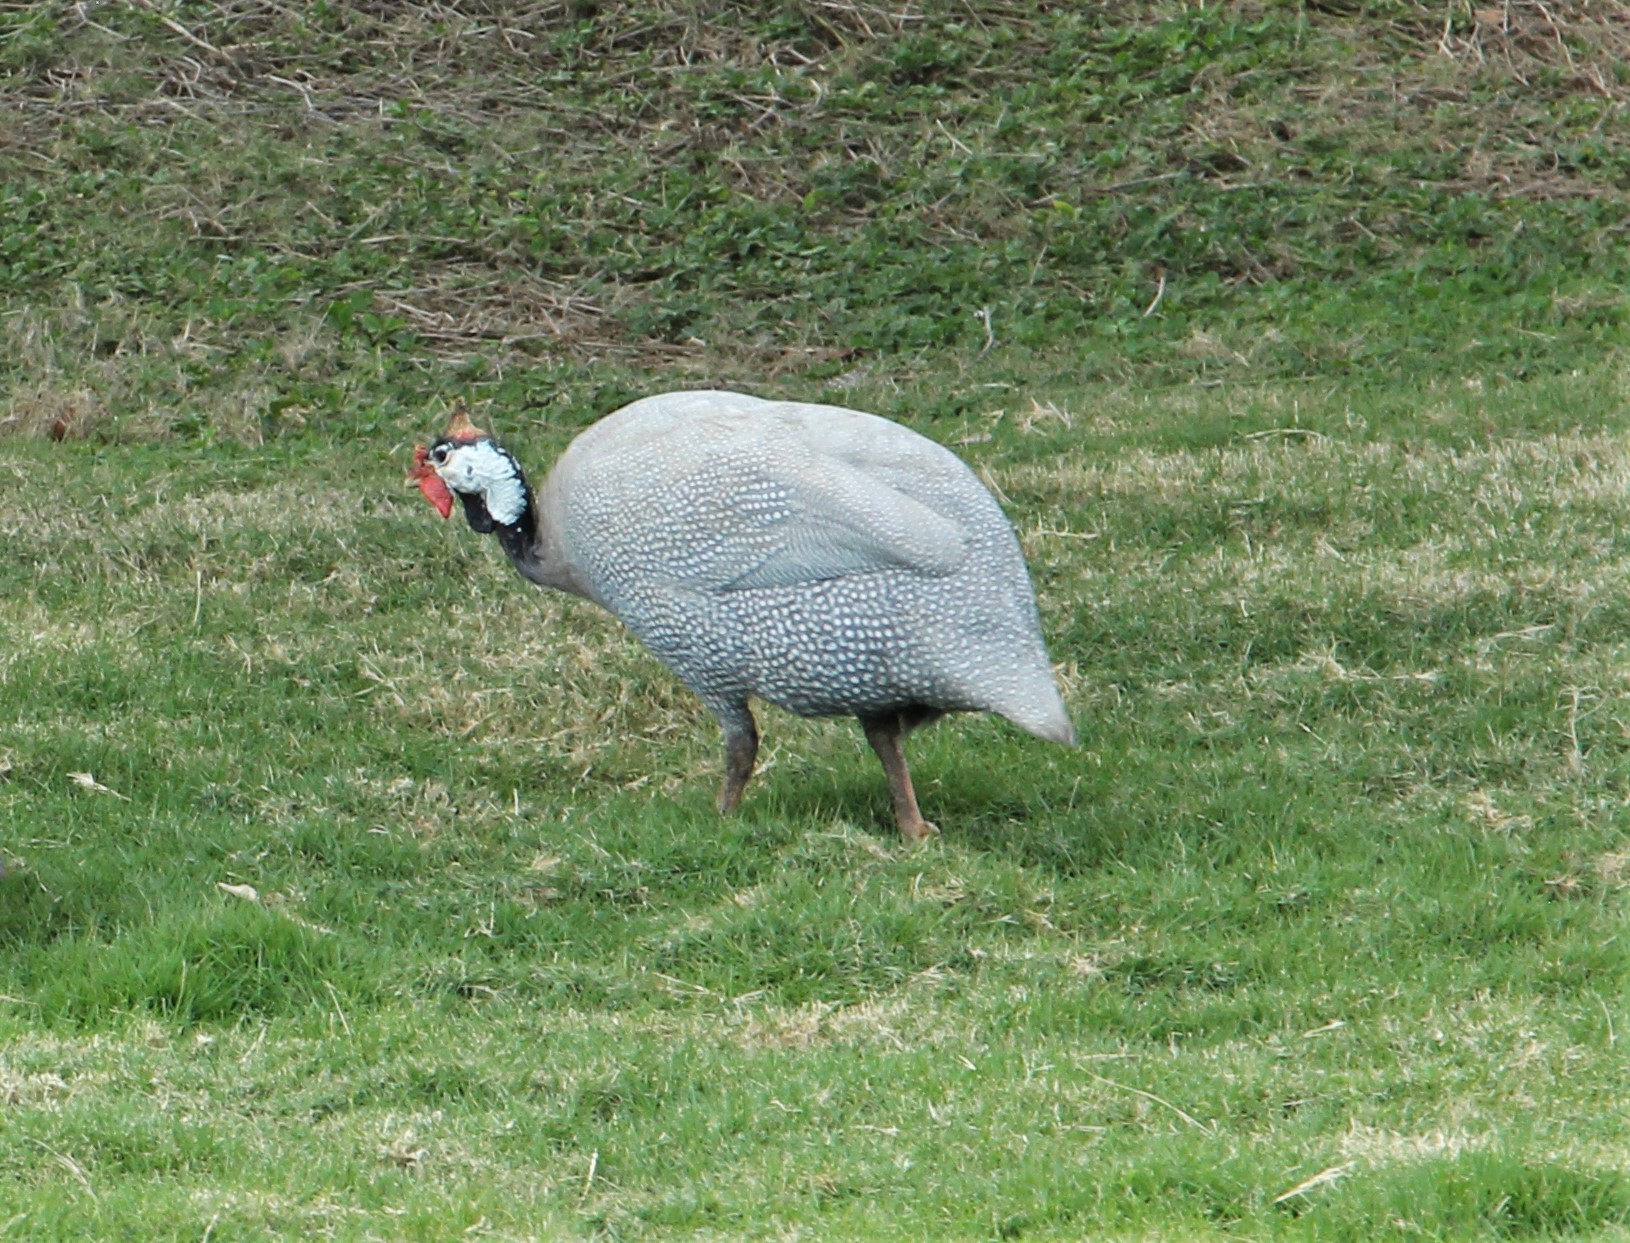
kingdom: Animalia
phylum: Chordata
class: Aves
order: Galliformes
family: Numididae
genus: Numida
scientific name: Numida meleagris
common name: Helmeted guineafowl
